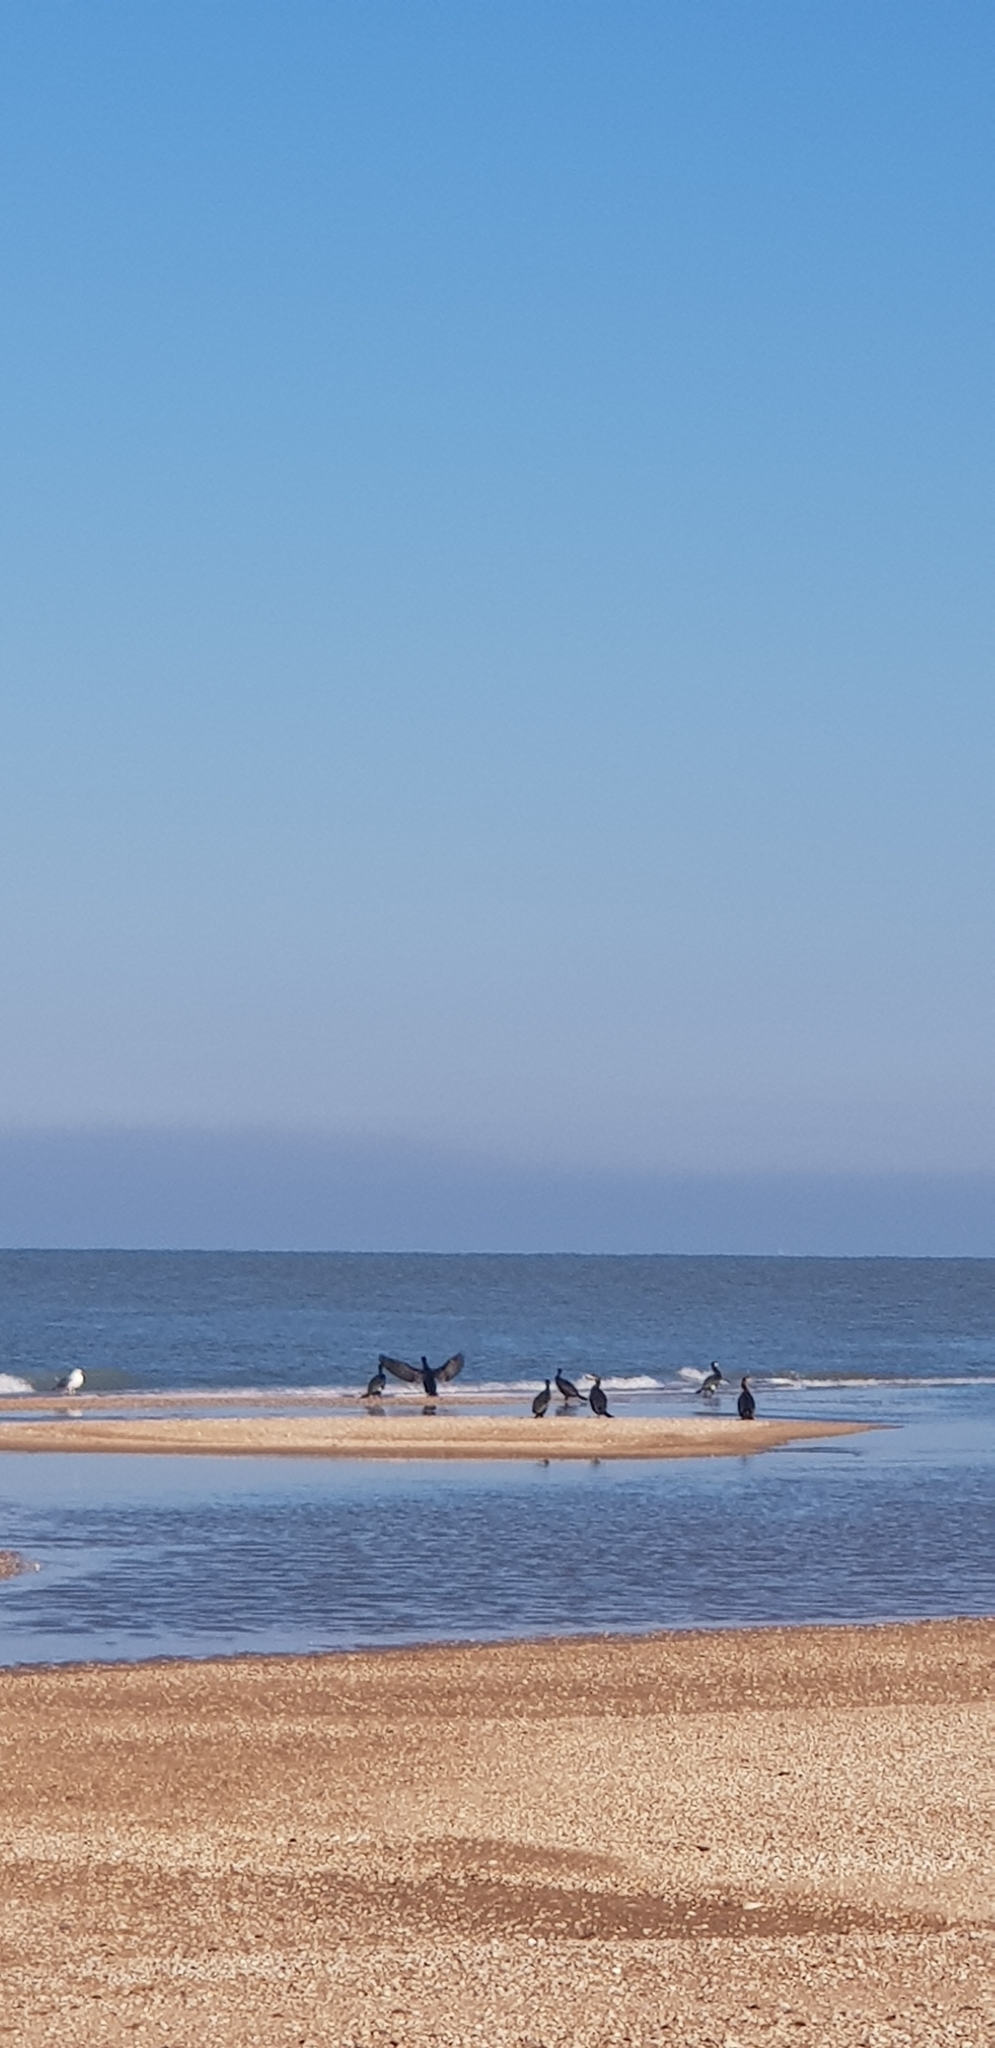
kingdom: Animalia
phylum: Chordata
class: Aves
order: Suliformes
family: Phalacrocoracidae
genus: Phalacrocorax
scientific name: Phalacrocorax carbo
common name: Great cormorant
